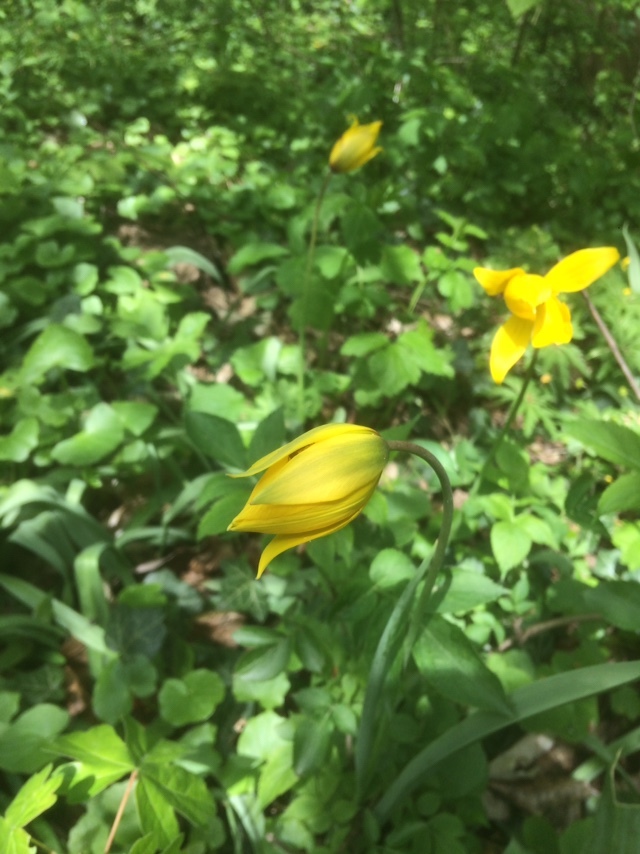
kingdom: Plantae
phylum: Tracheophyta
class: Liliopsida
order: Liliales
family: Liliaceae
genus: Tulipa
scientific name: Tulipa sylvestris
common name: Wild tulip
